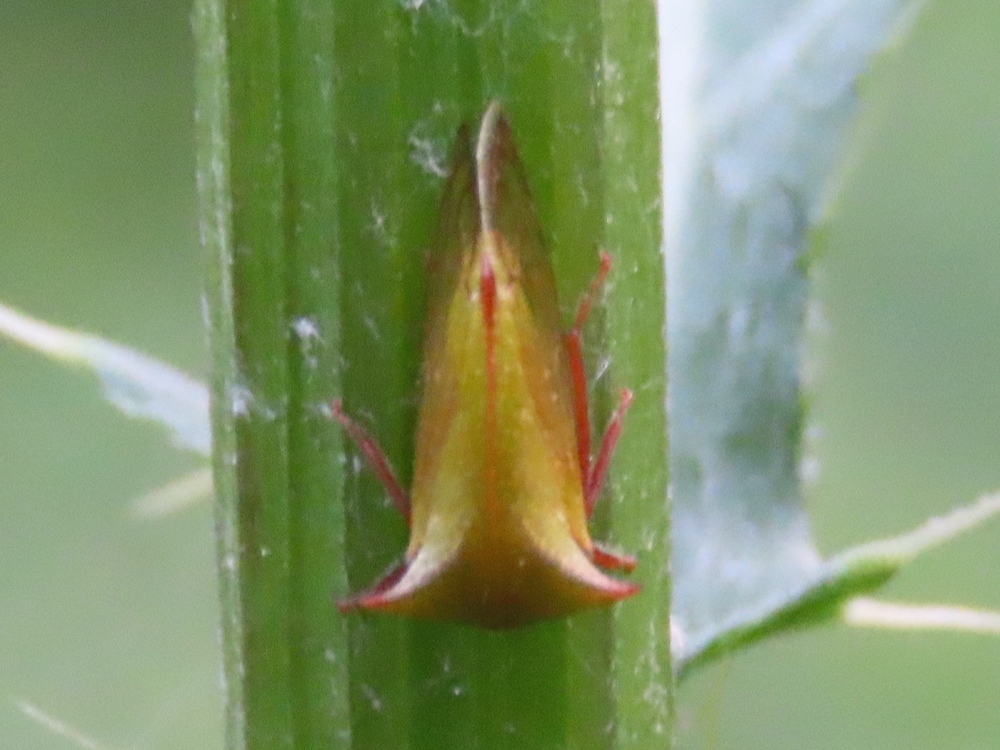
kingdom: Animalia
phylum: Arthropoda
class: Insecta
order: Hemiptera
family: Membracidae
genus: Stictocephala
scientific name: Stictocephala brevitylus
